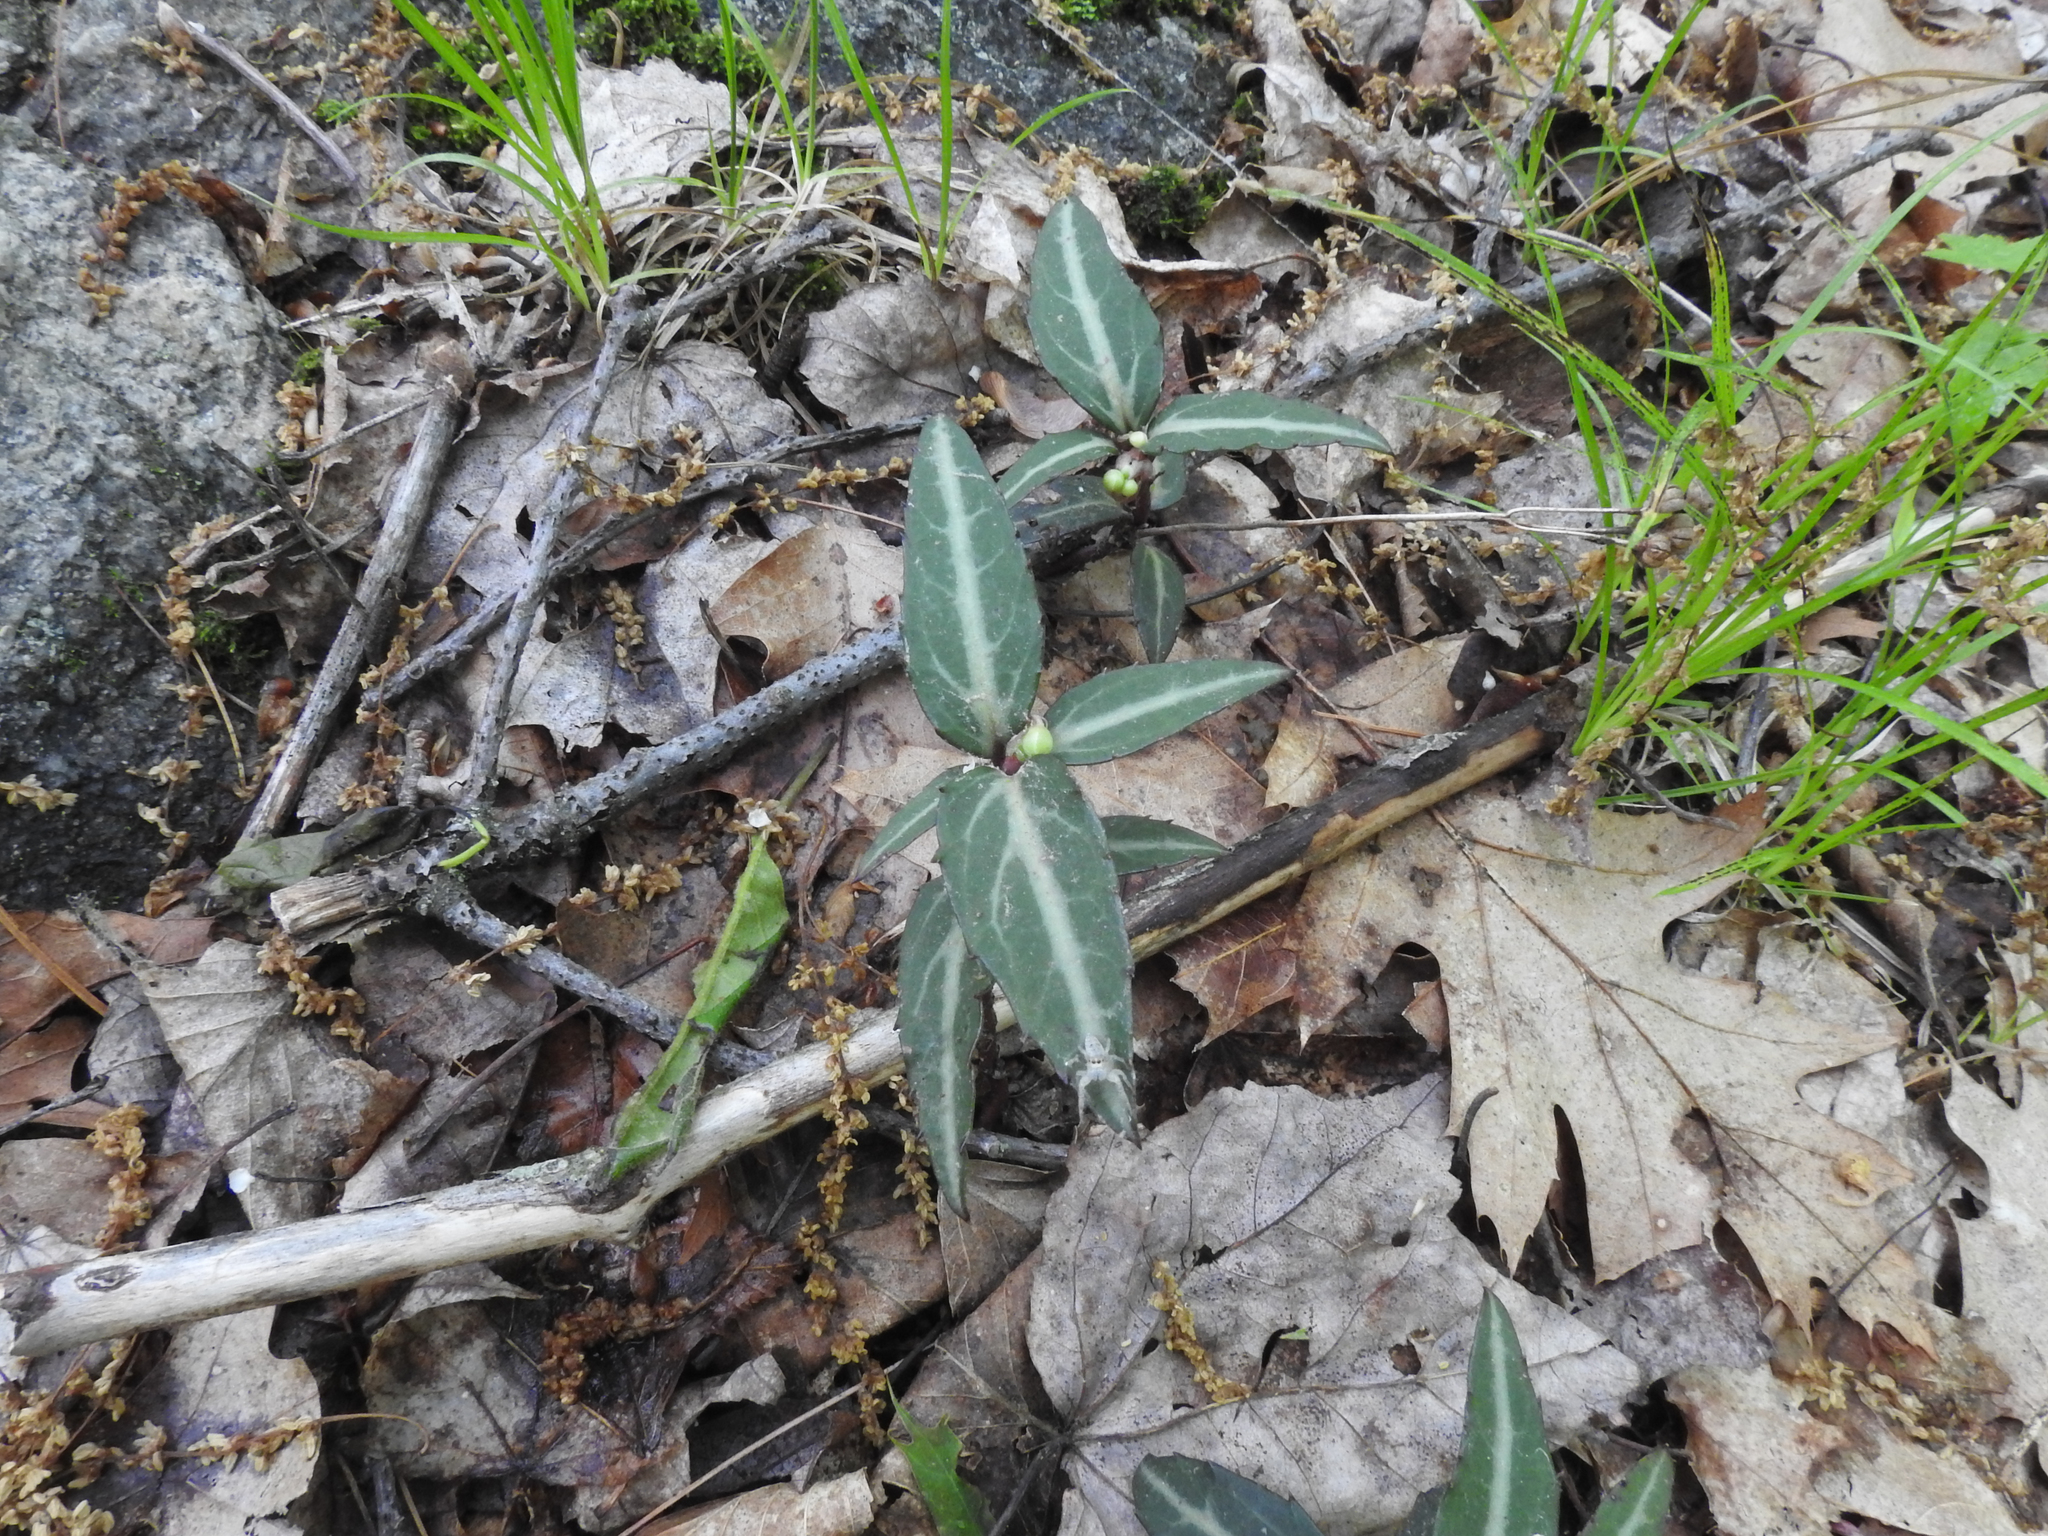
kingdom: Plantae
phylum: Tracheophyta
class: Magnoliopsida
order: Ericales
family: Ericaceae
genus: Chimaphila
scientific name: Chimaphila maculata
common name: Spotted pipsissewa
